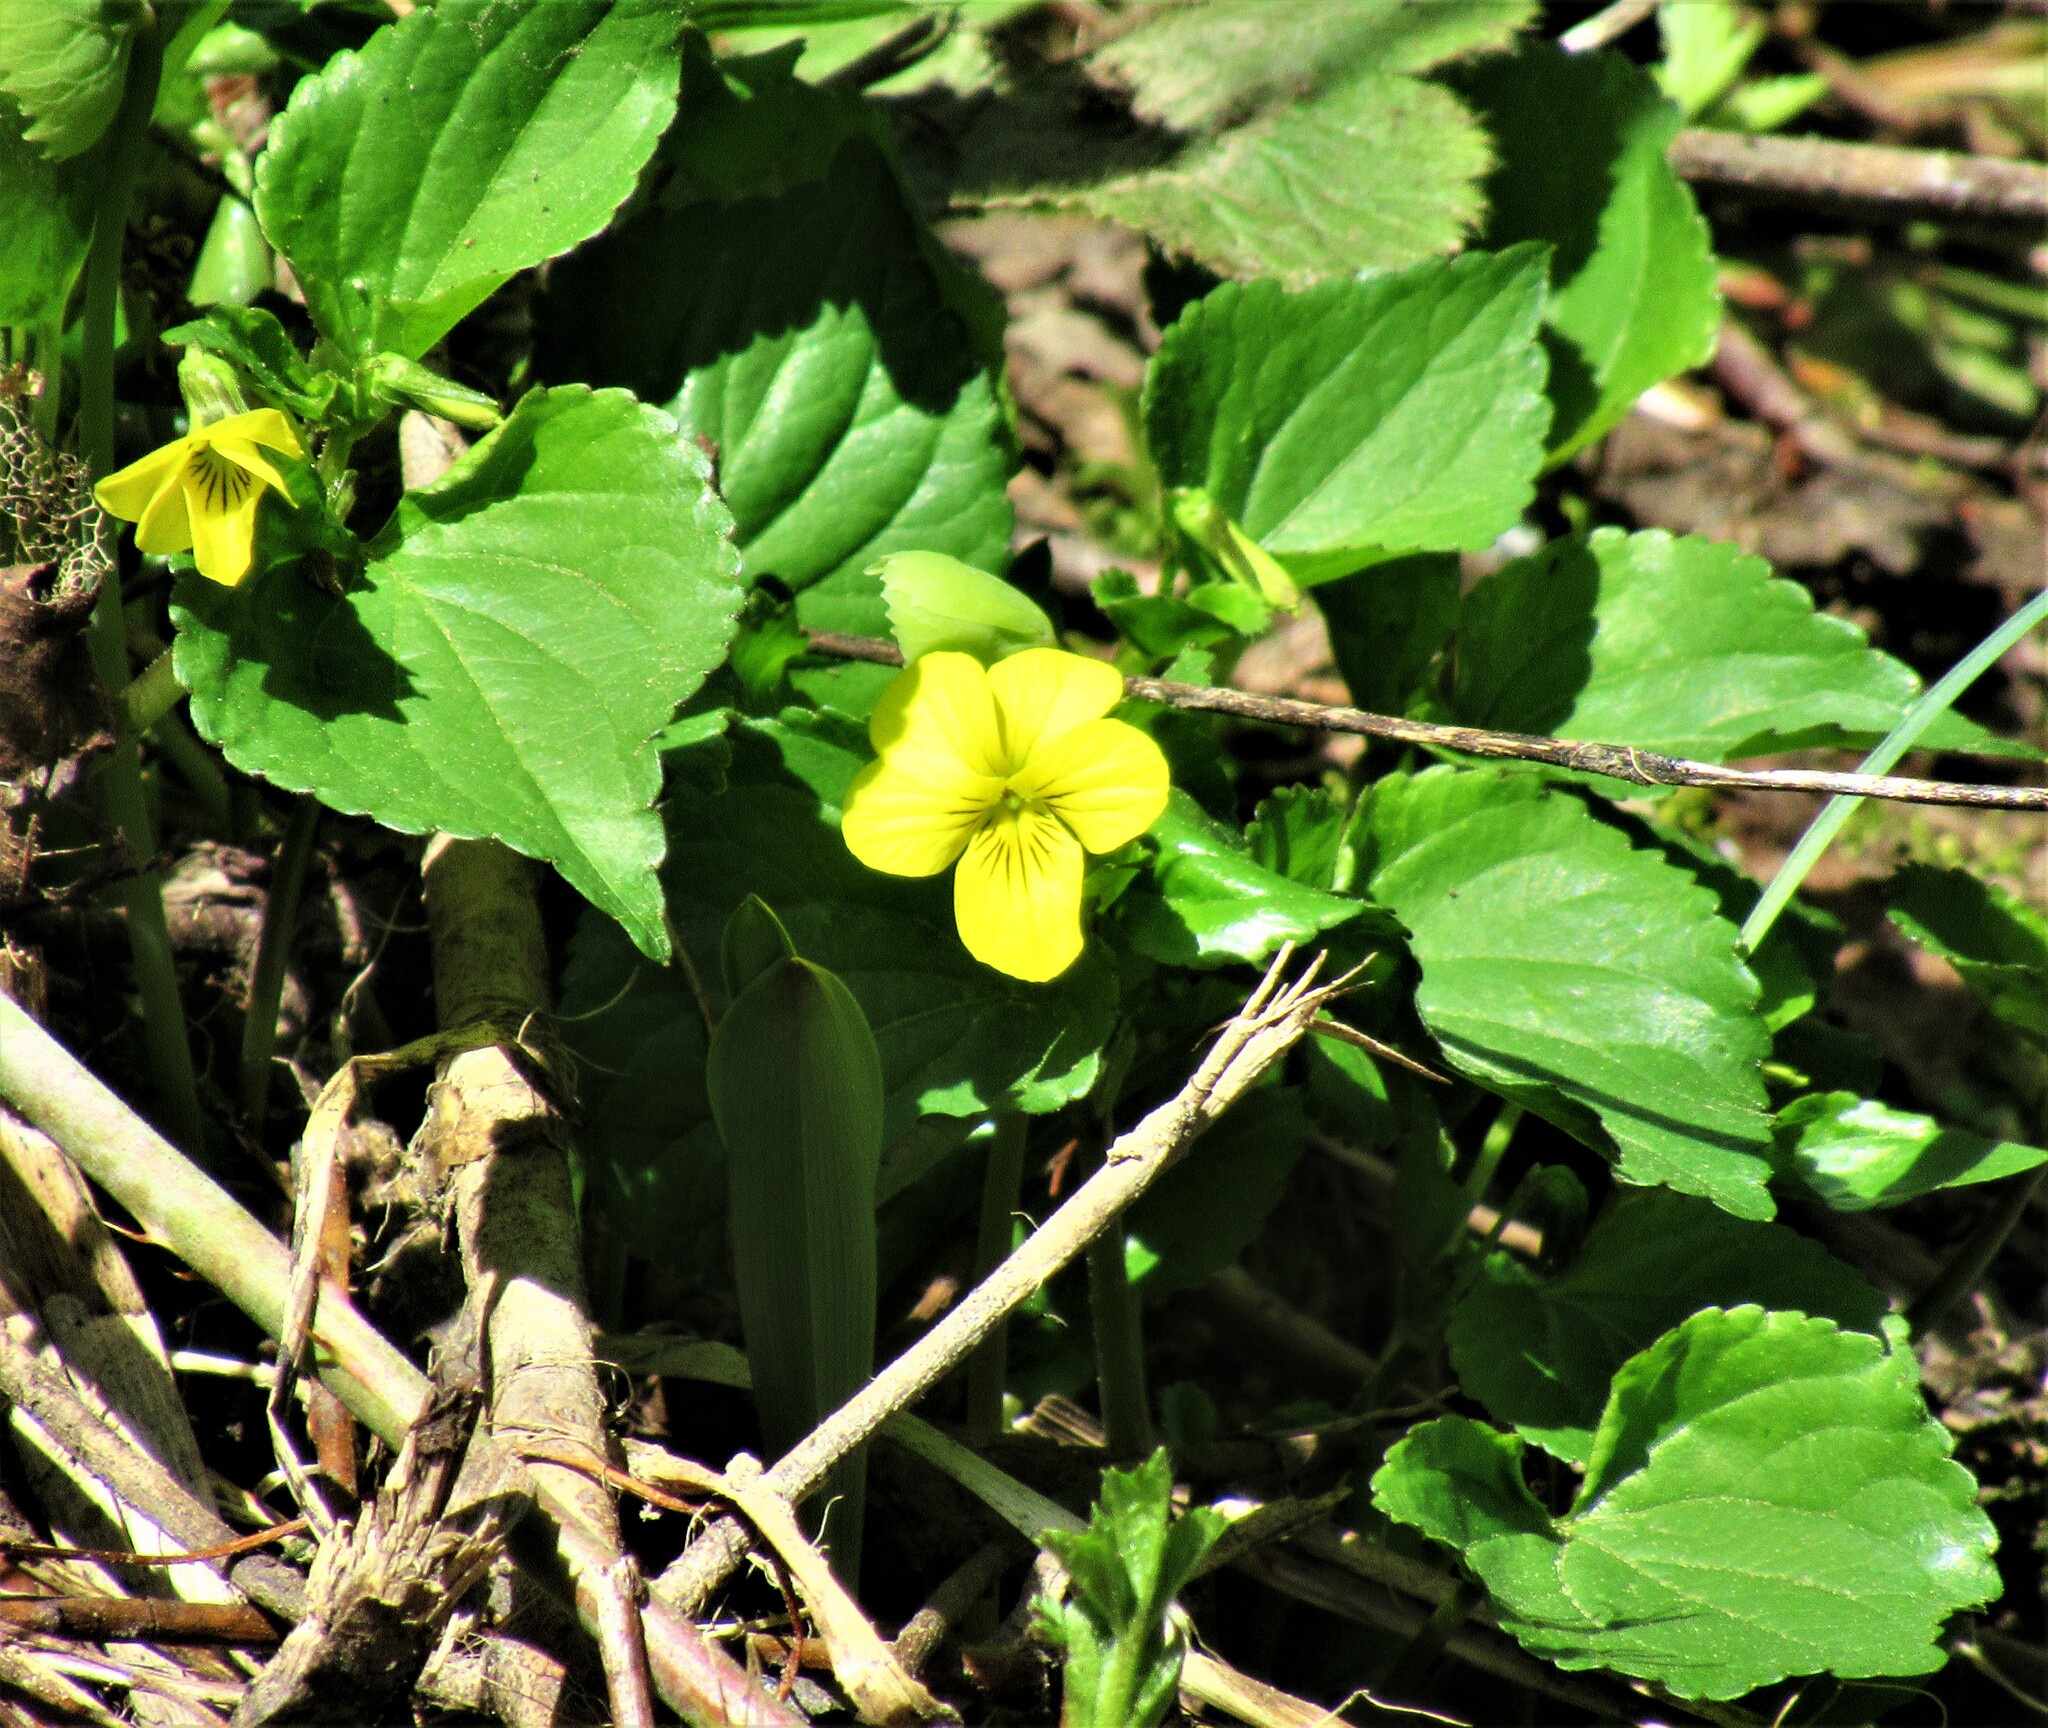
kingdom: Plantae
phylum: Tracheophyta
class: Magnoliopsida
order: Malpighiales
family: Violaceae
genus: Viola
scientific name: Viola glabella
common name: Stream violet
